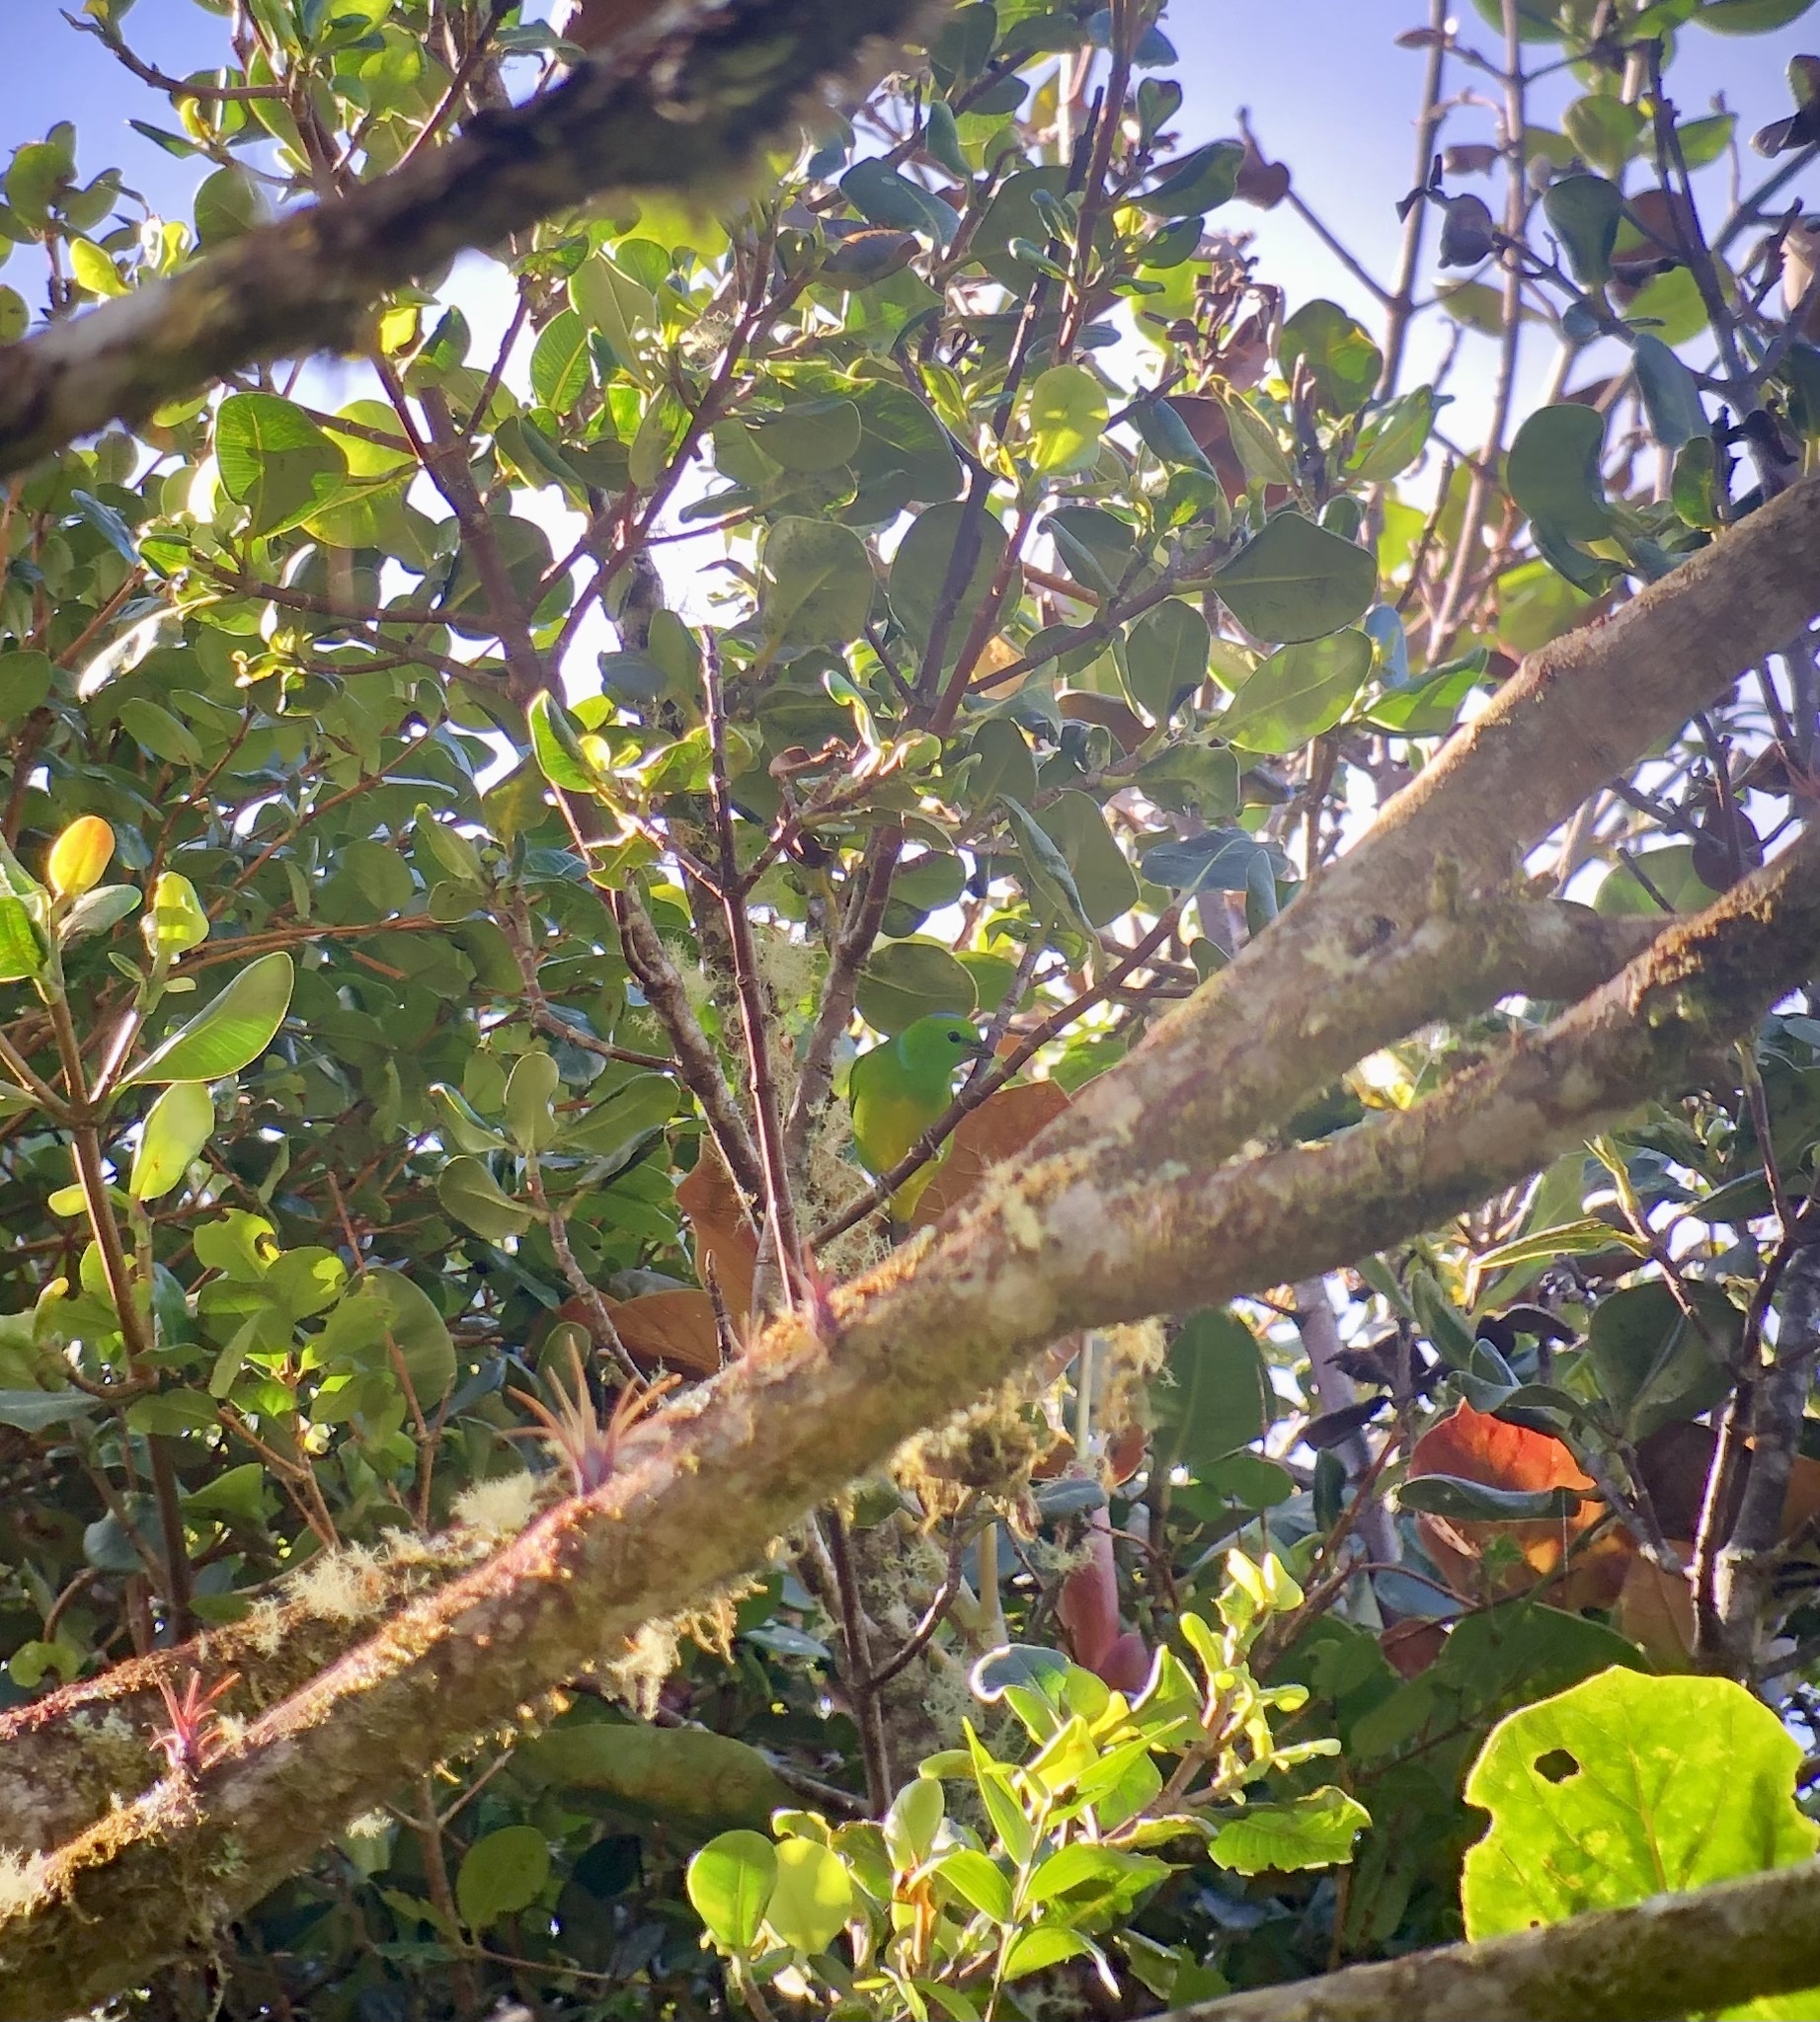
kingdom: Animalia
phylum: Chordata
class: Aves
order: Passeriformes
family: Fringillidae
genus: Chlorophonia
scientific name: Chlorophonia callophrys
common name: Golden-browed chlorophonia
